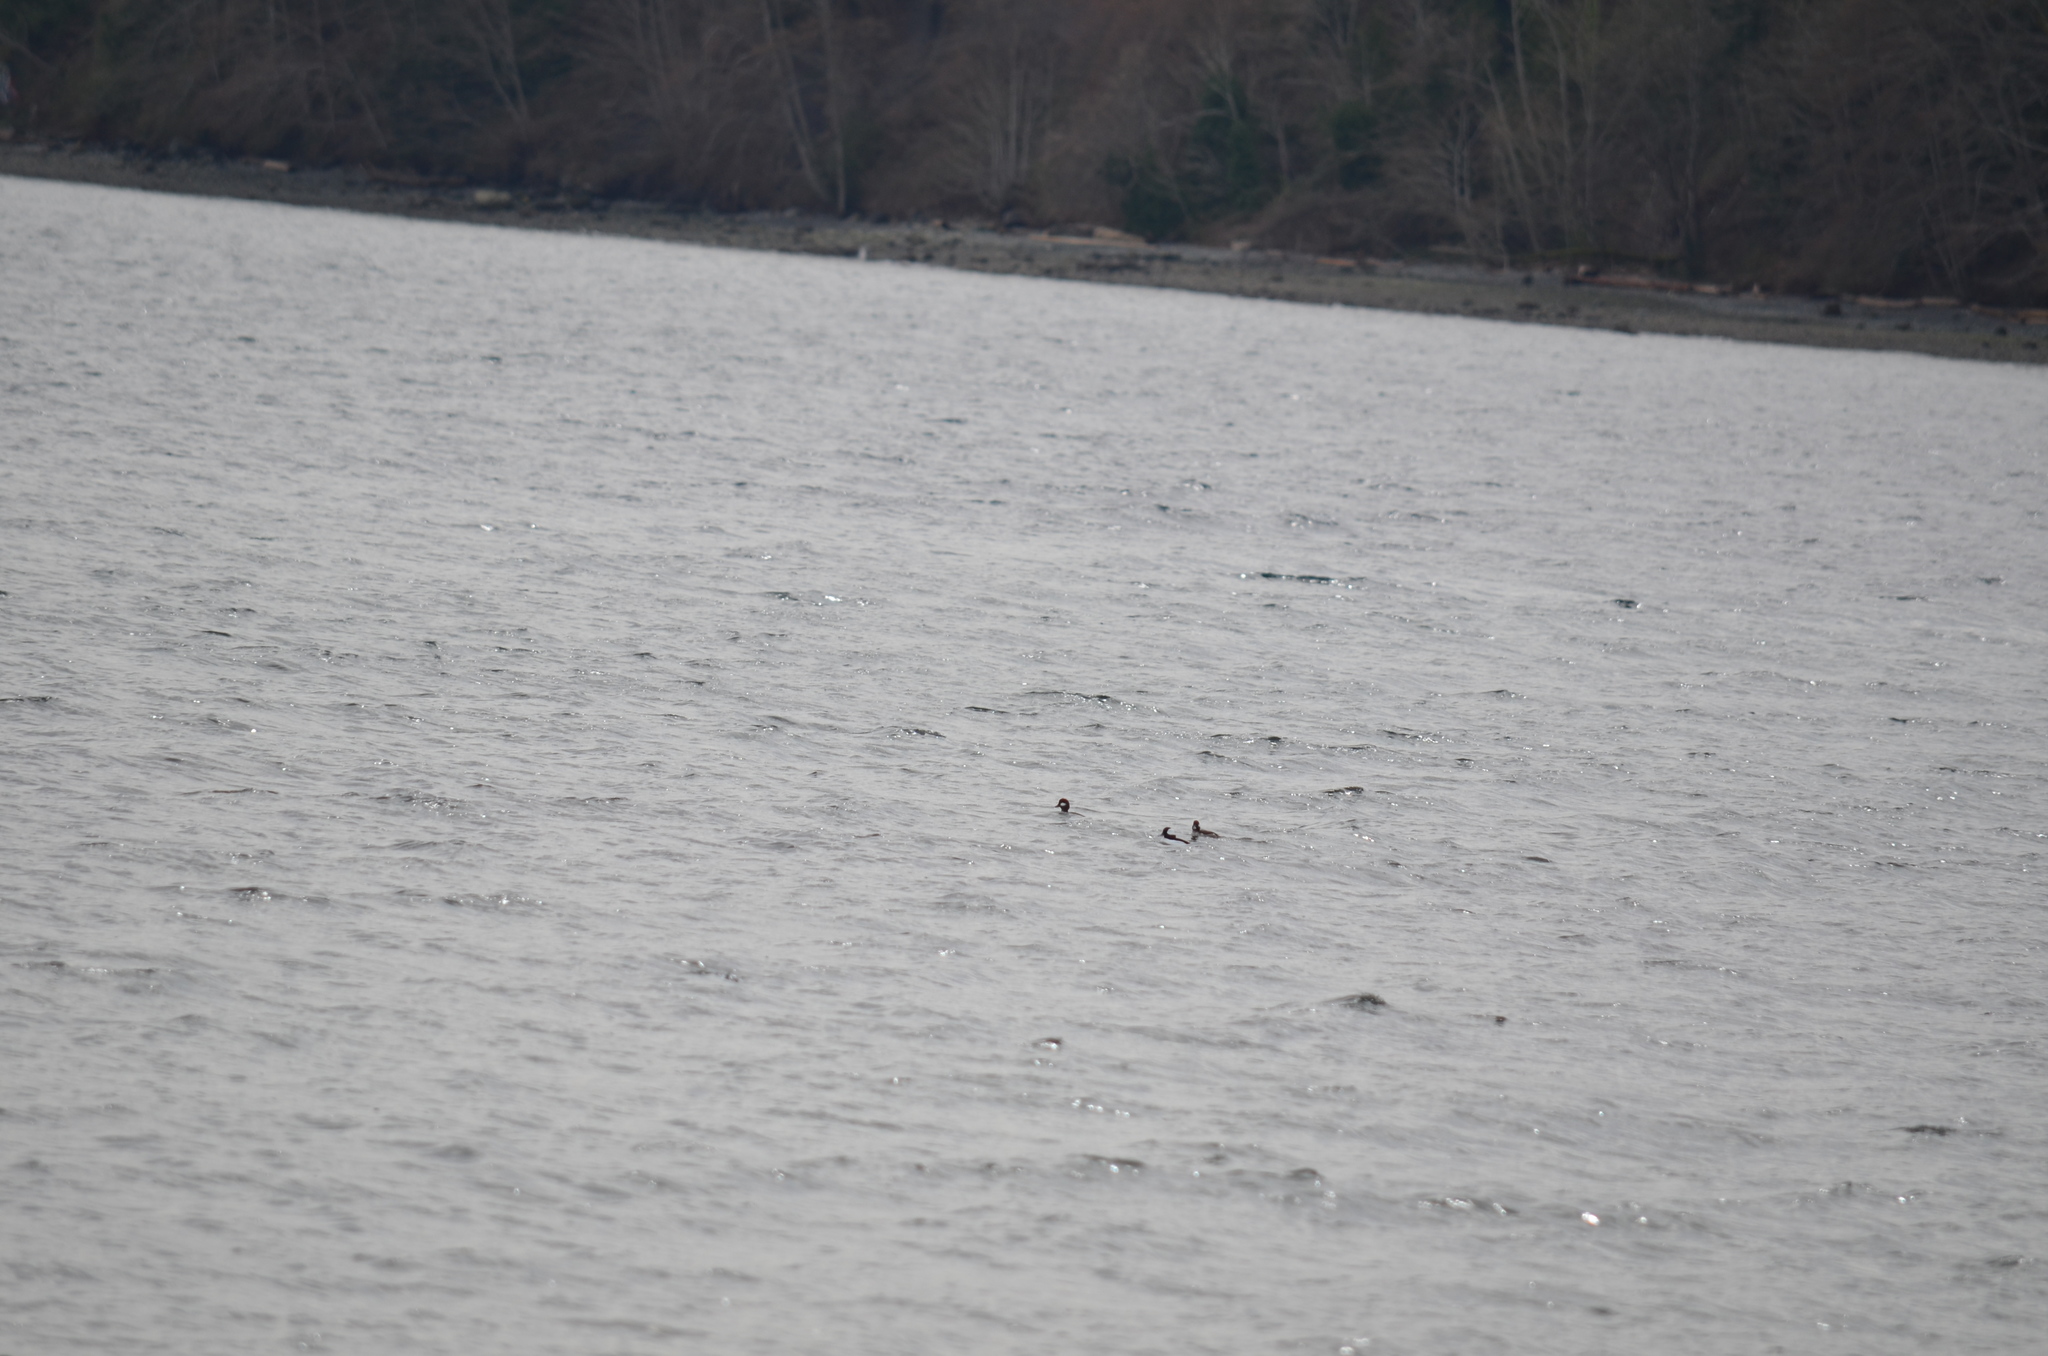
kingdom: Animalia
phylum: Chordata
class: Aves
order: Anseriformes
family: Anatidae
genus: Bucephala
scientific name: Bucephala albeola
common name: Bufflehead
